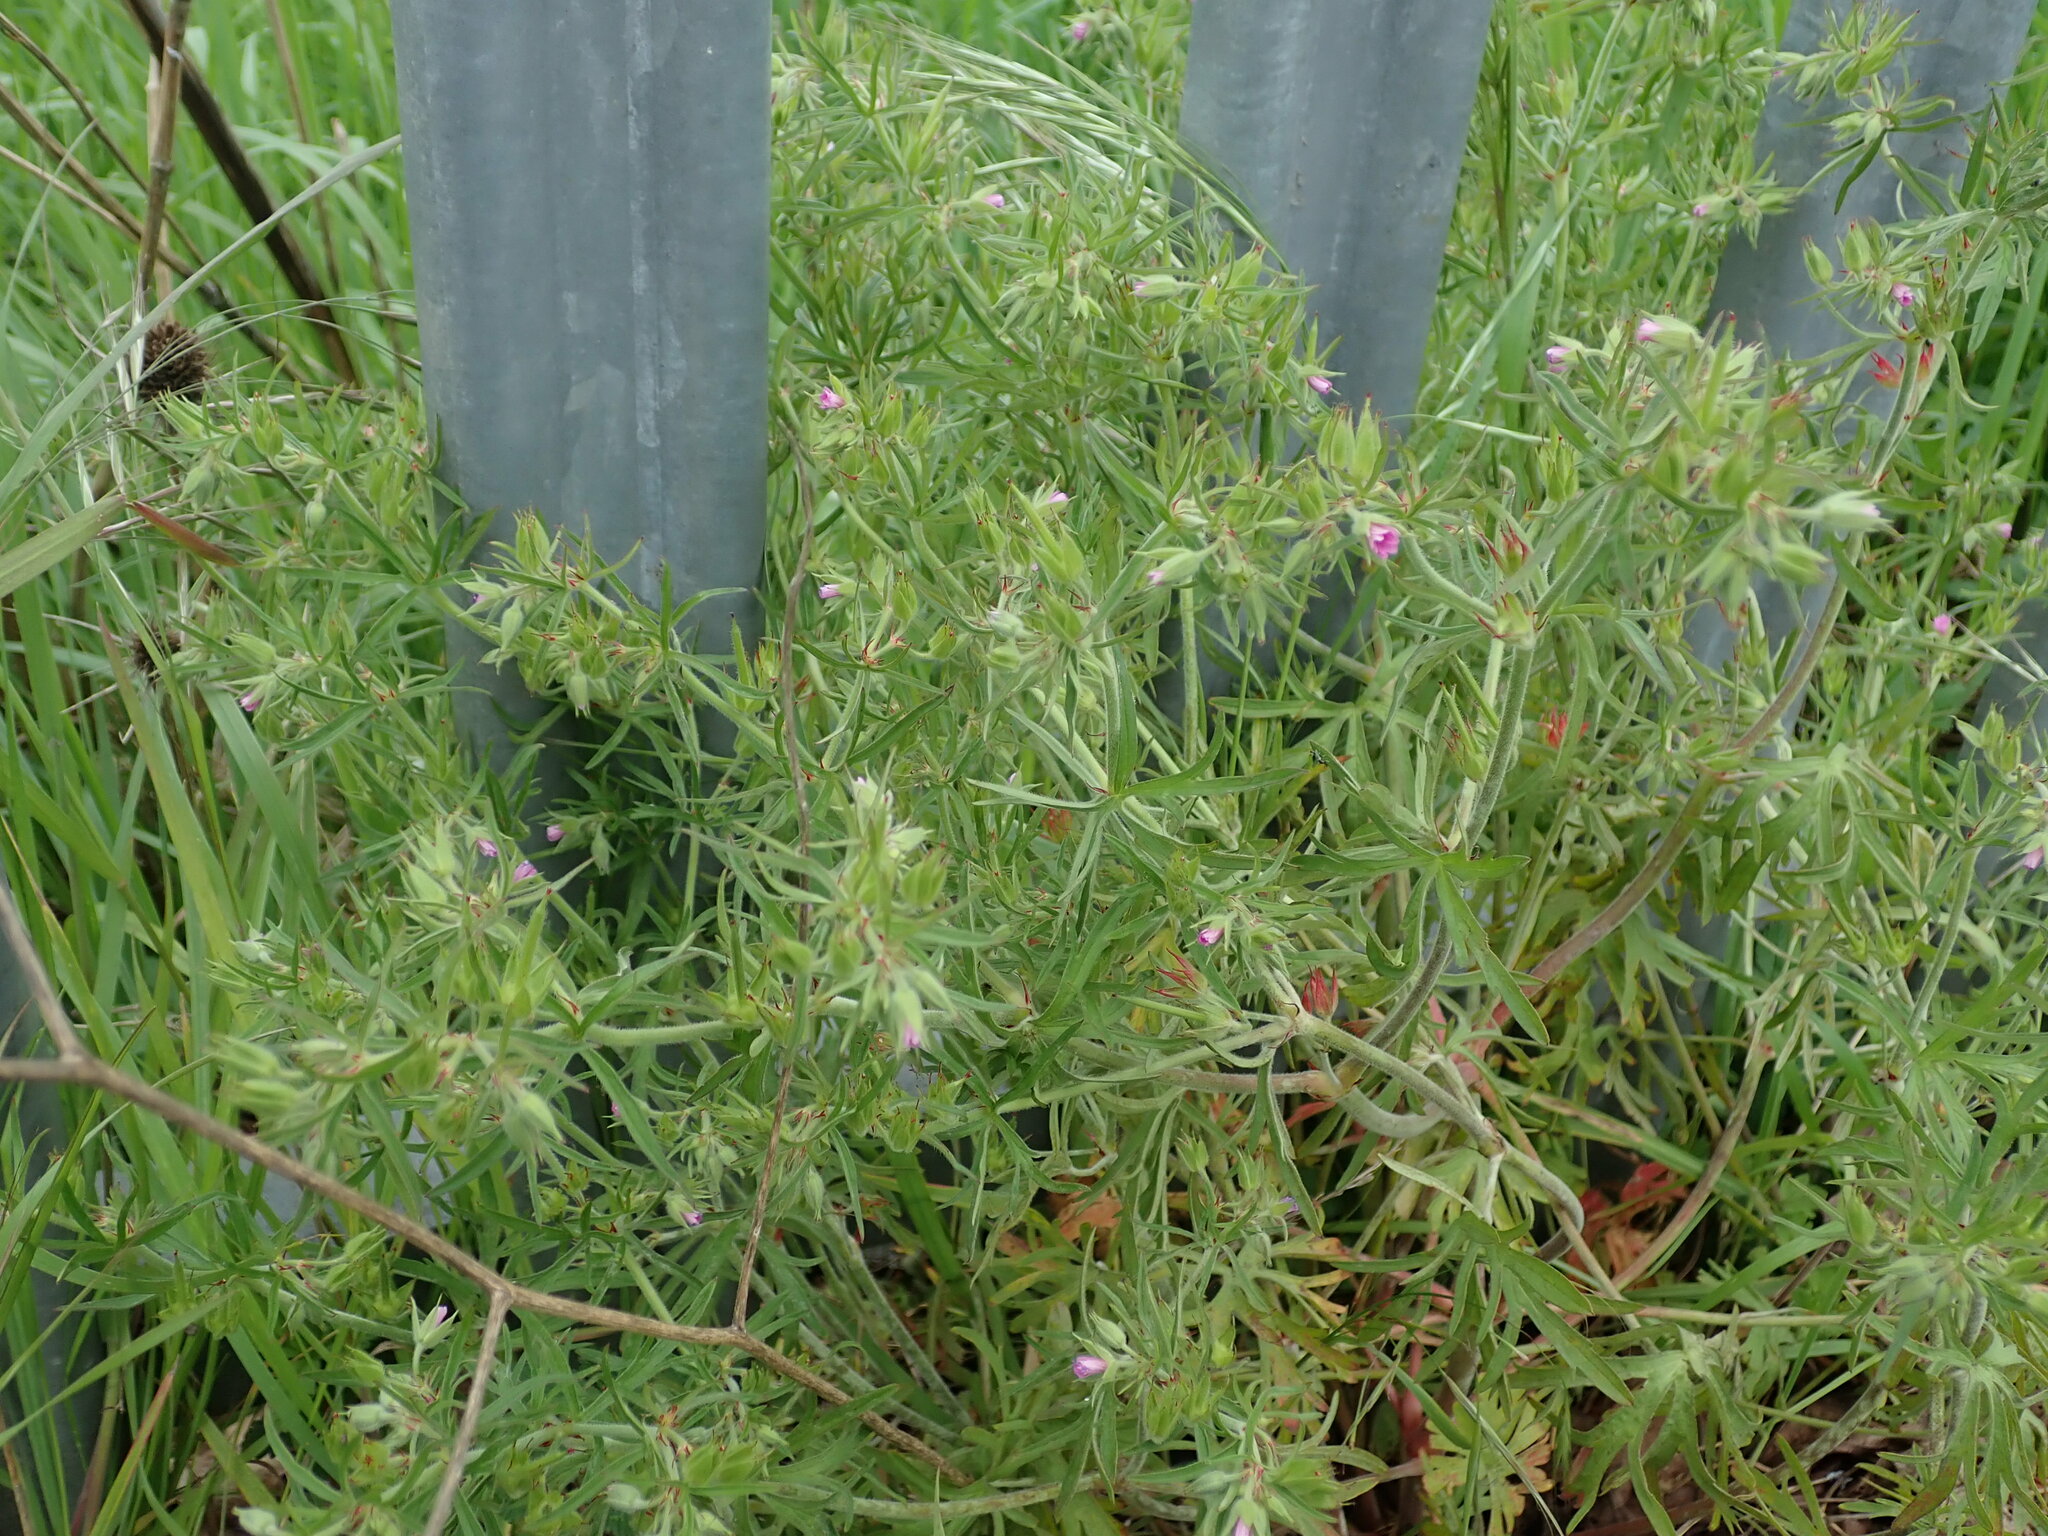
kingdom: Plantae
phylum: Tracheophyta
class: Magnoliopsida
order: Geraniales
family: Geraniaceae
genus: Geranium
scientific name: Geranium dissectum
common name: Cut-leaved crane's-bill
